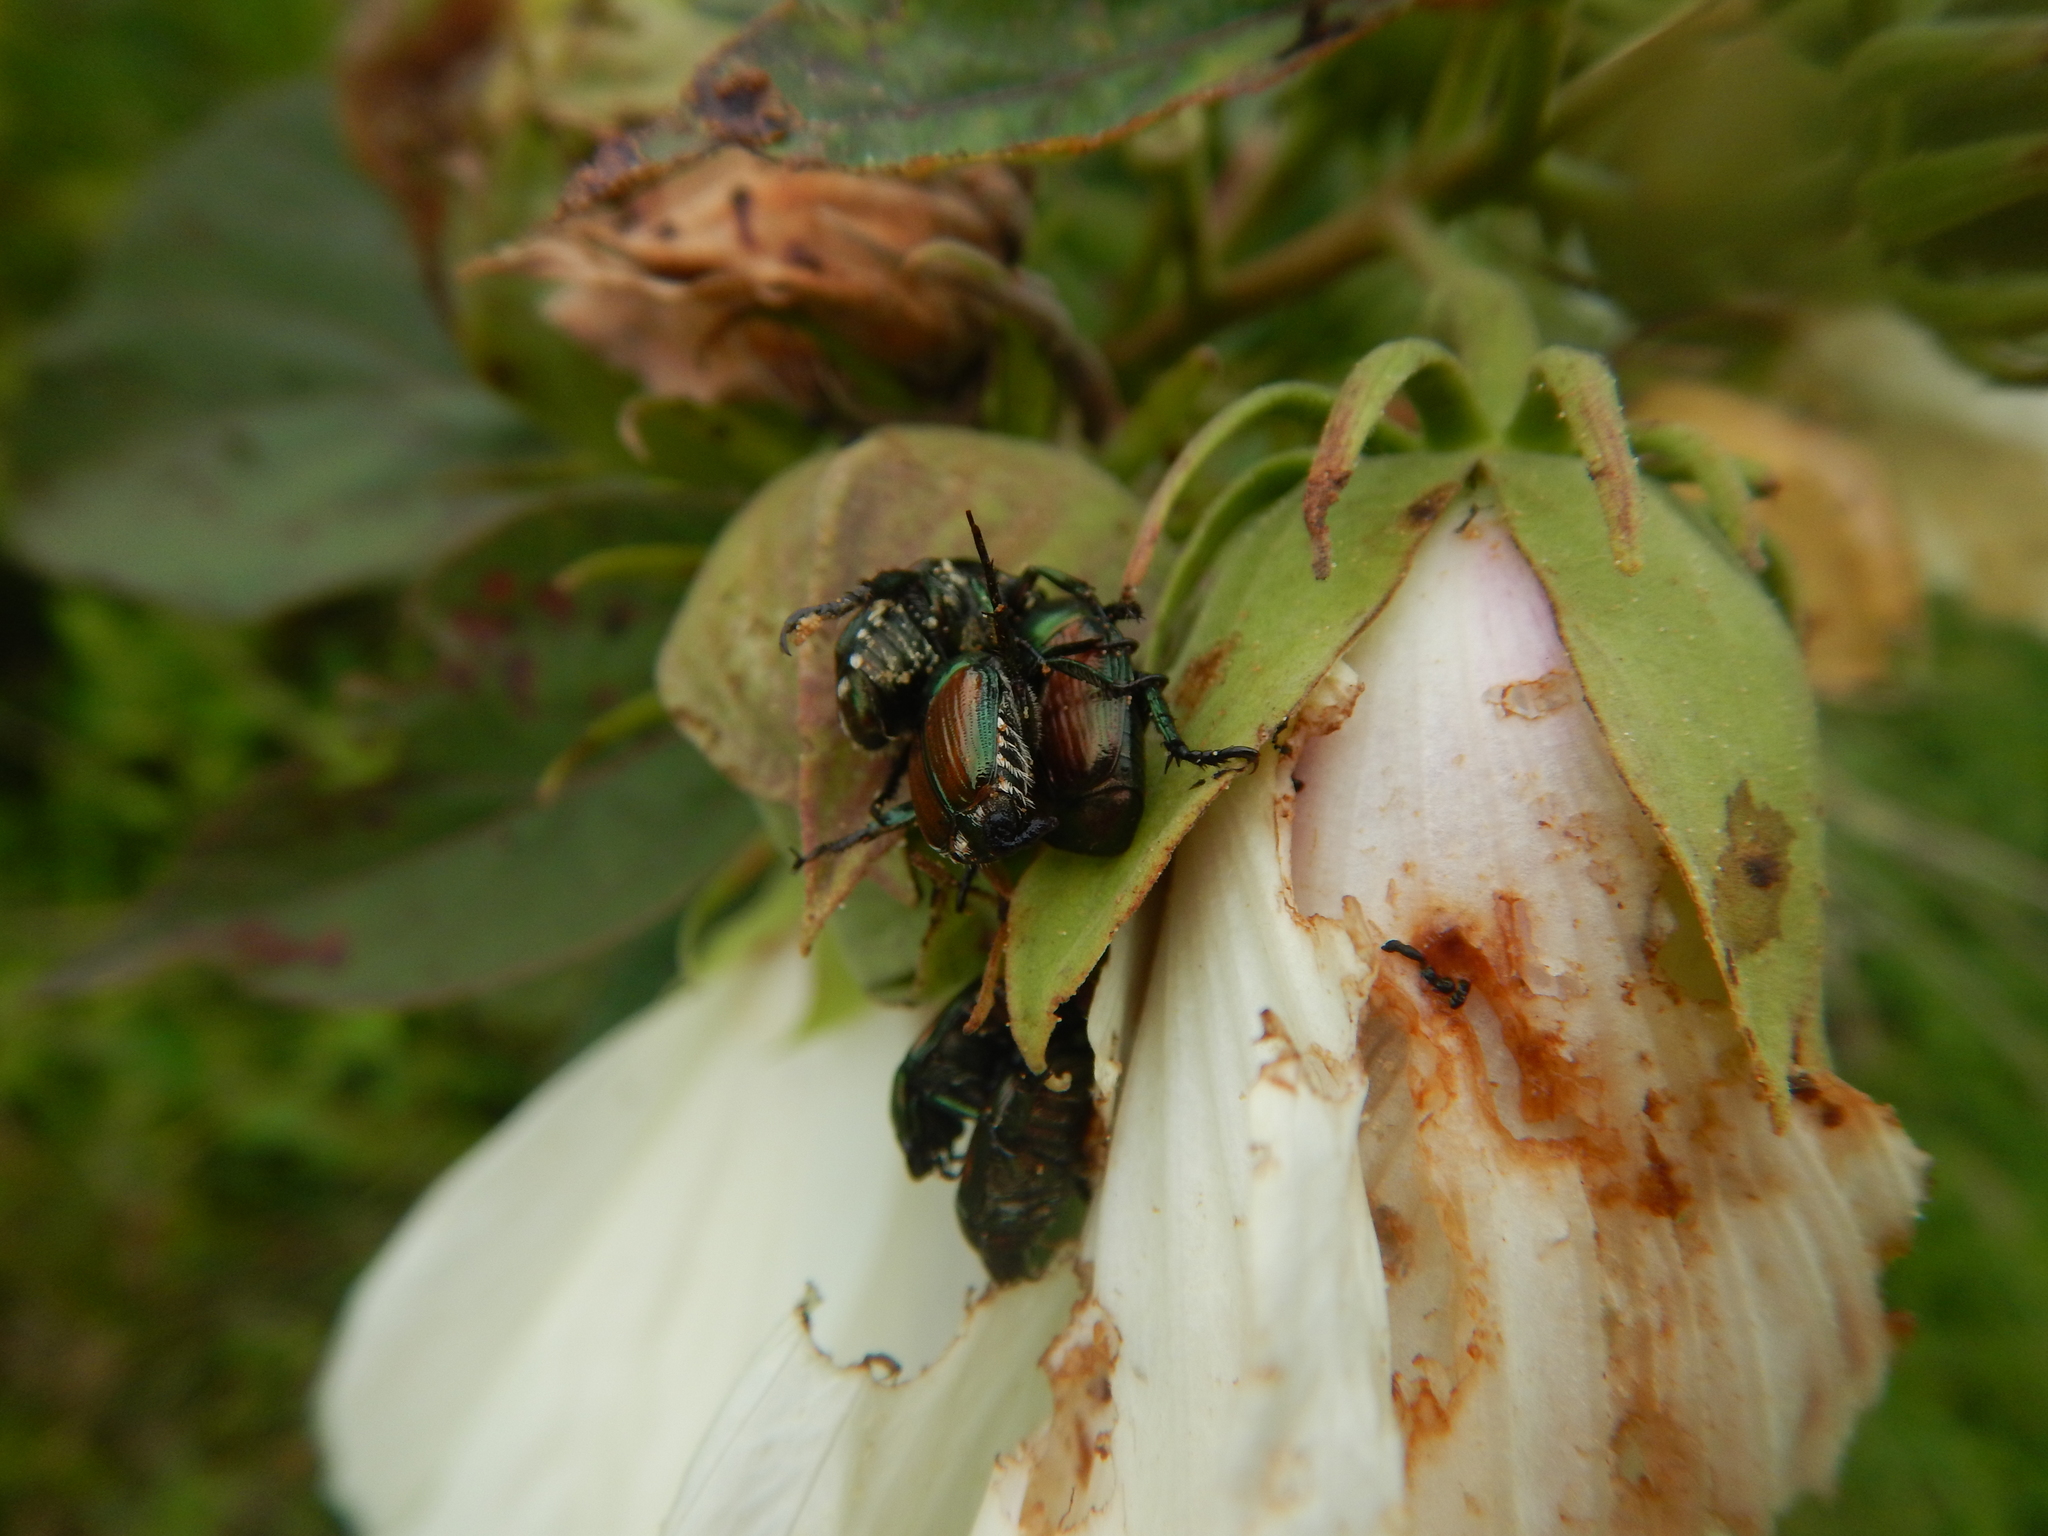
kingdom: Animalia
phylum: Arthropoda
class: Insecta
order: Coleoptera
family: Scarabaeidae
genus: Popillia
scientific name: Popillia japonica
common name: Japanese beetle
